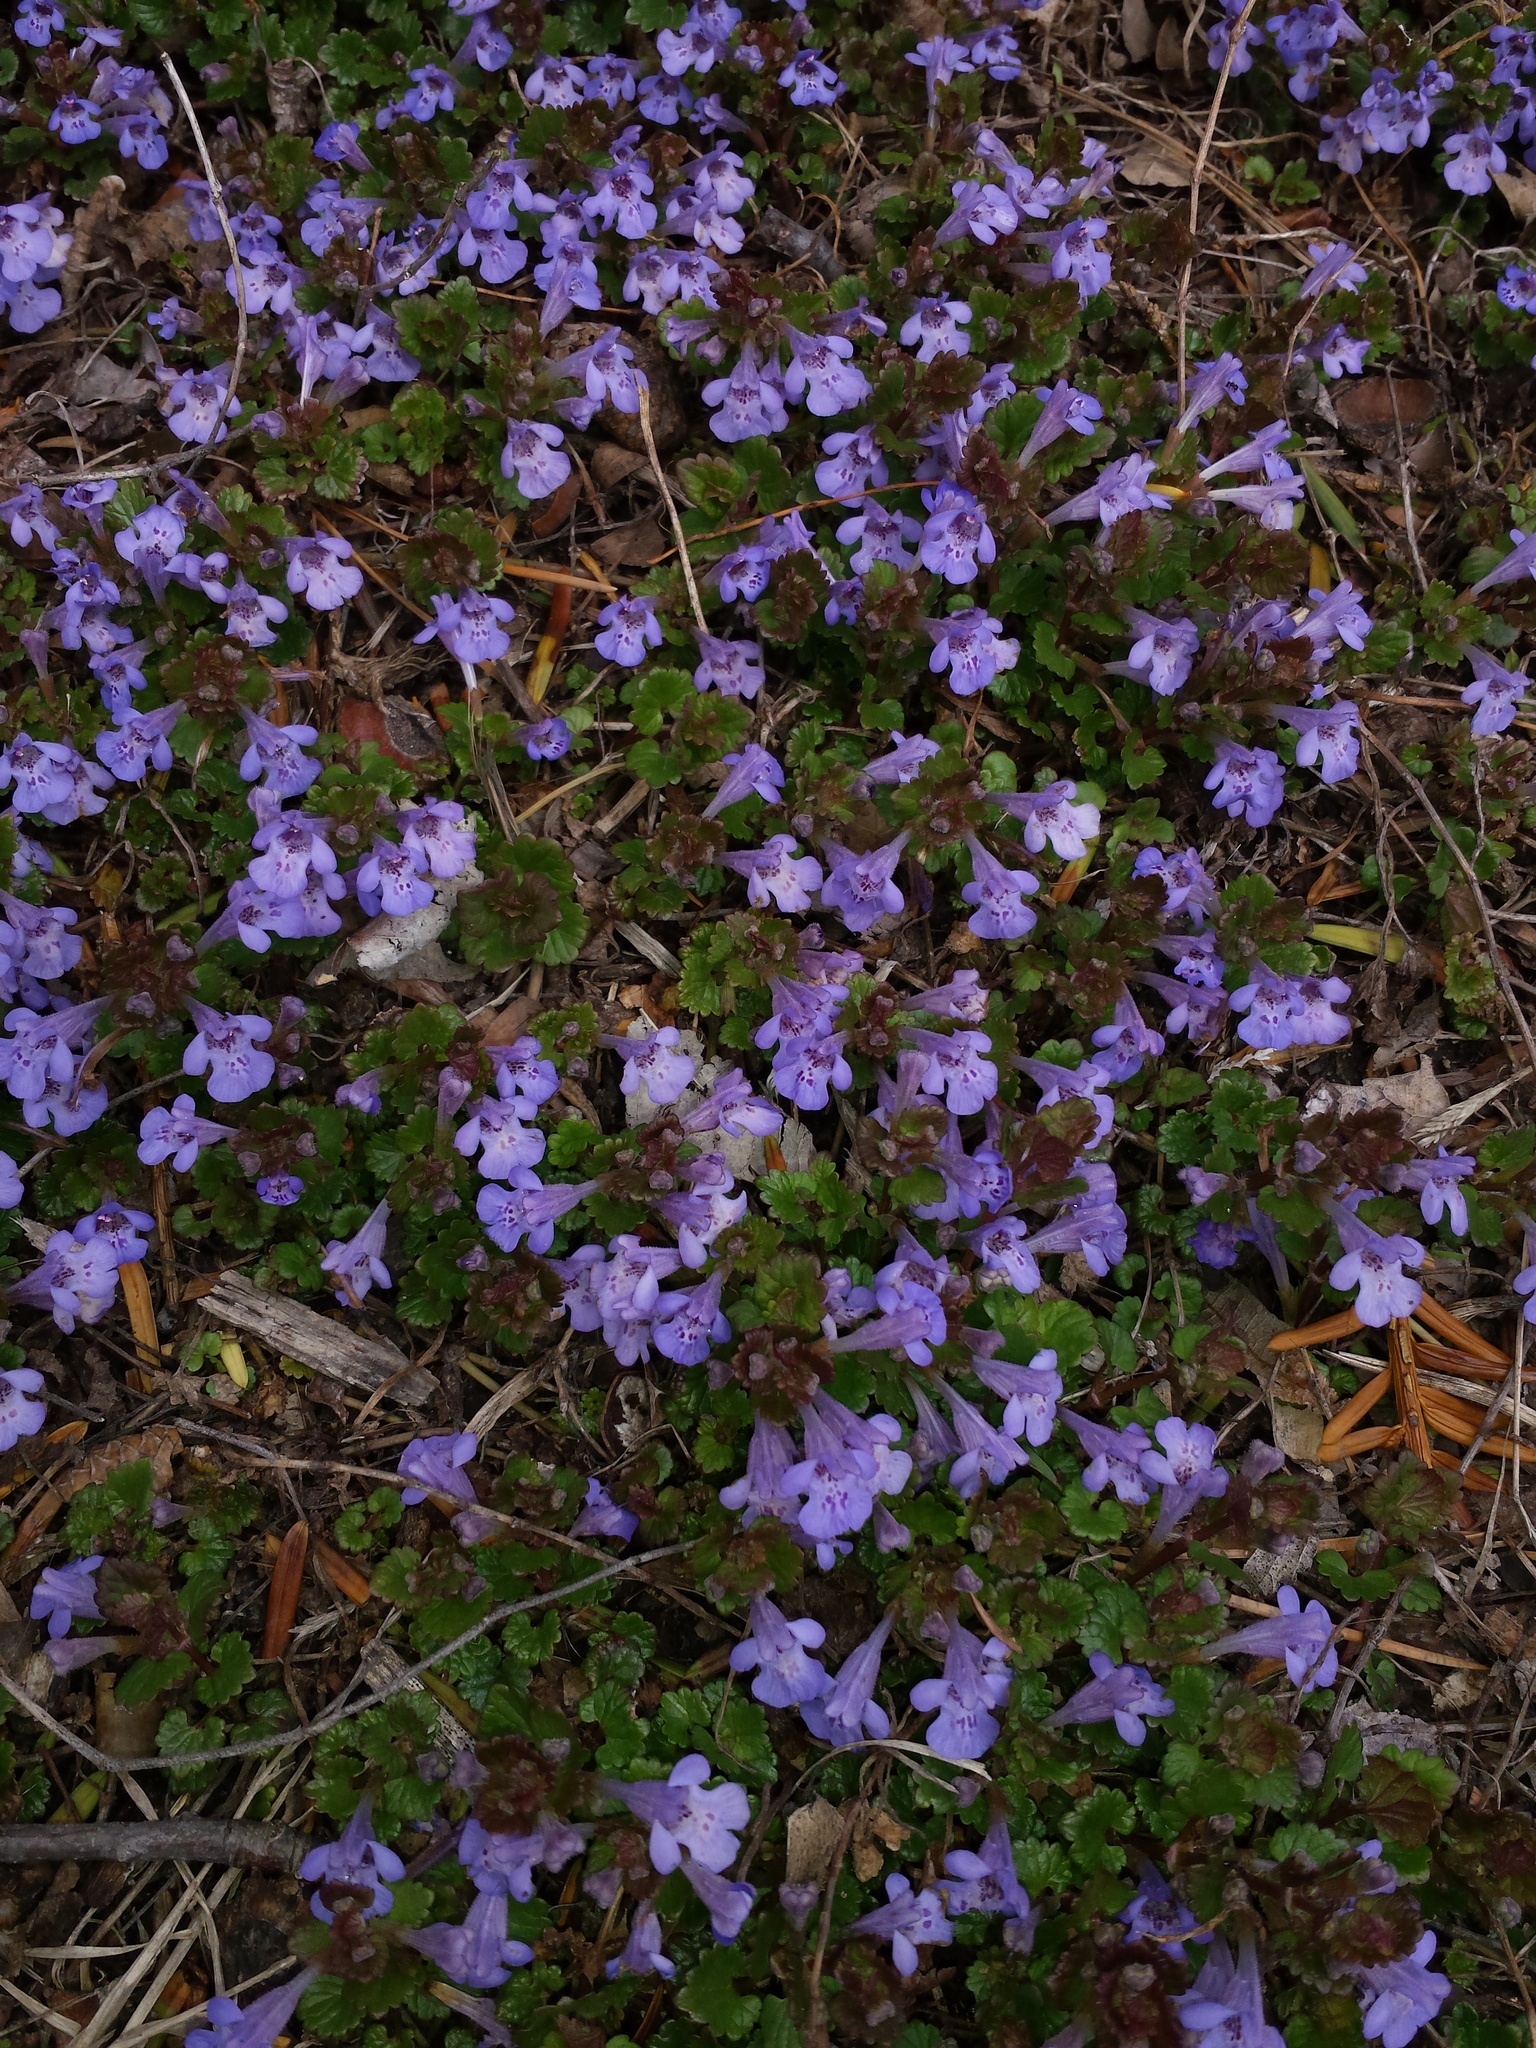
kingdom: Plantae
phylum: Tracheophyta
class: Magnoliopsida
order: Lamiales
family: Lamiaceae
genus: Glechoma
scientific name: Glechoma hederacea
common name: Ground ivy
